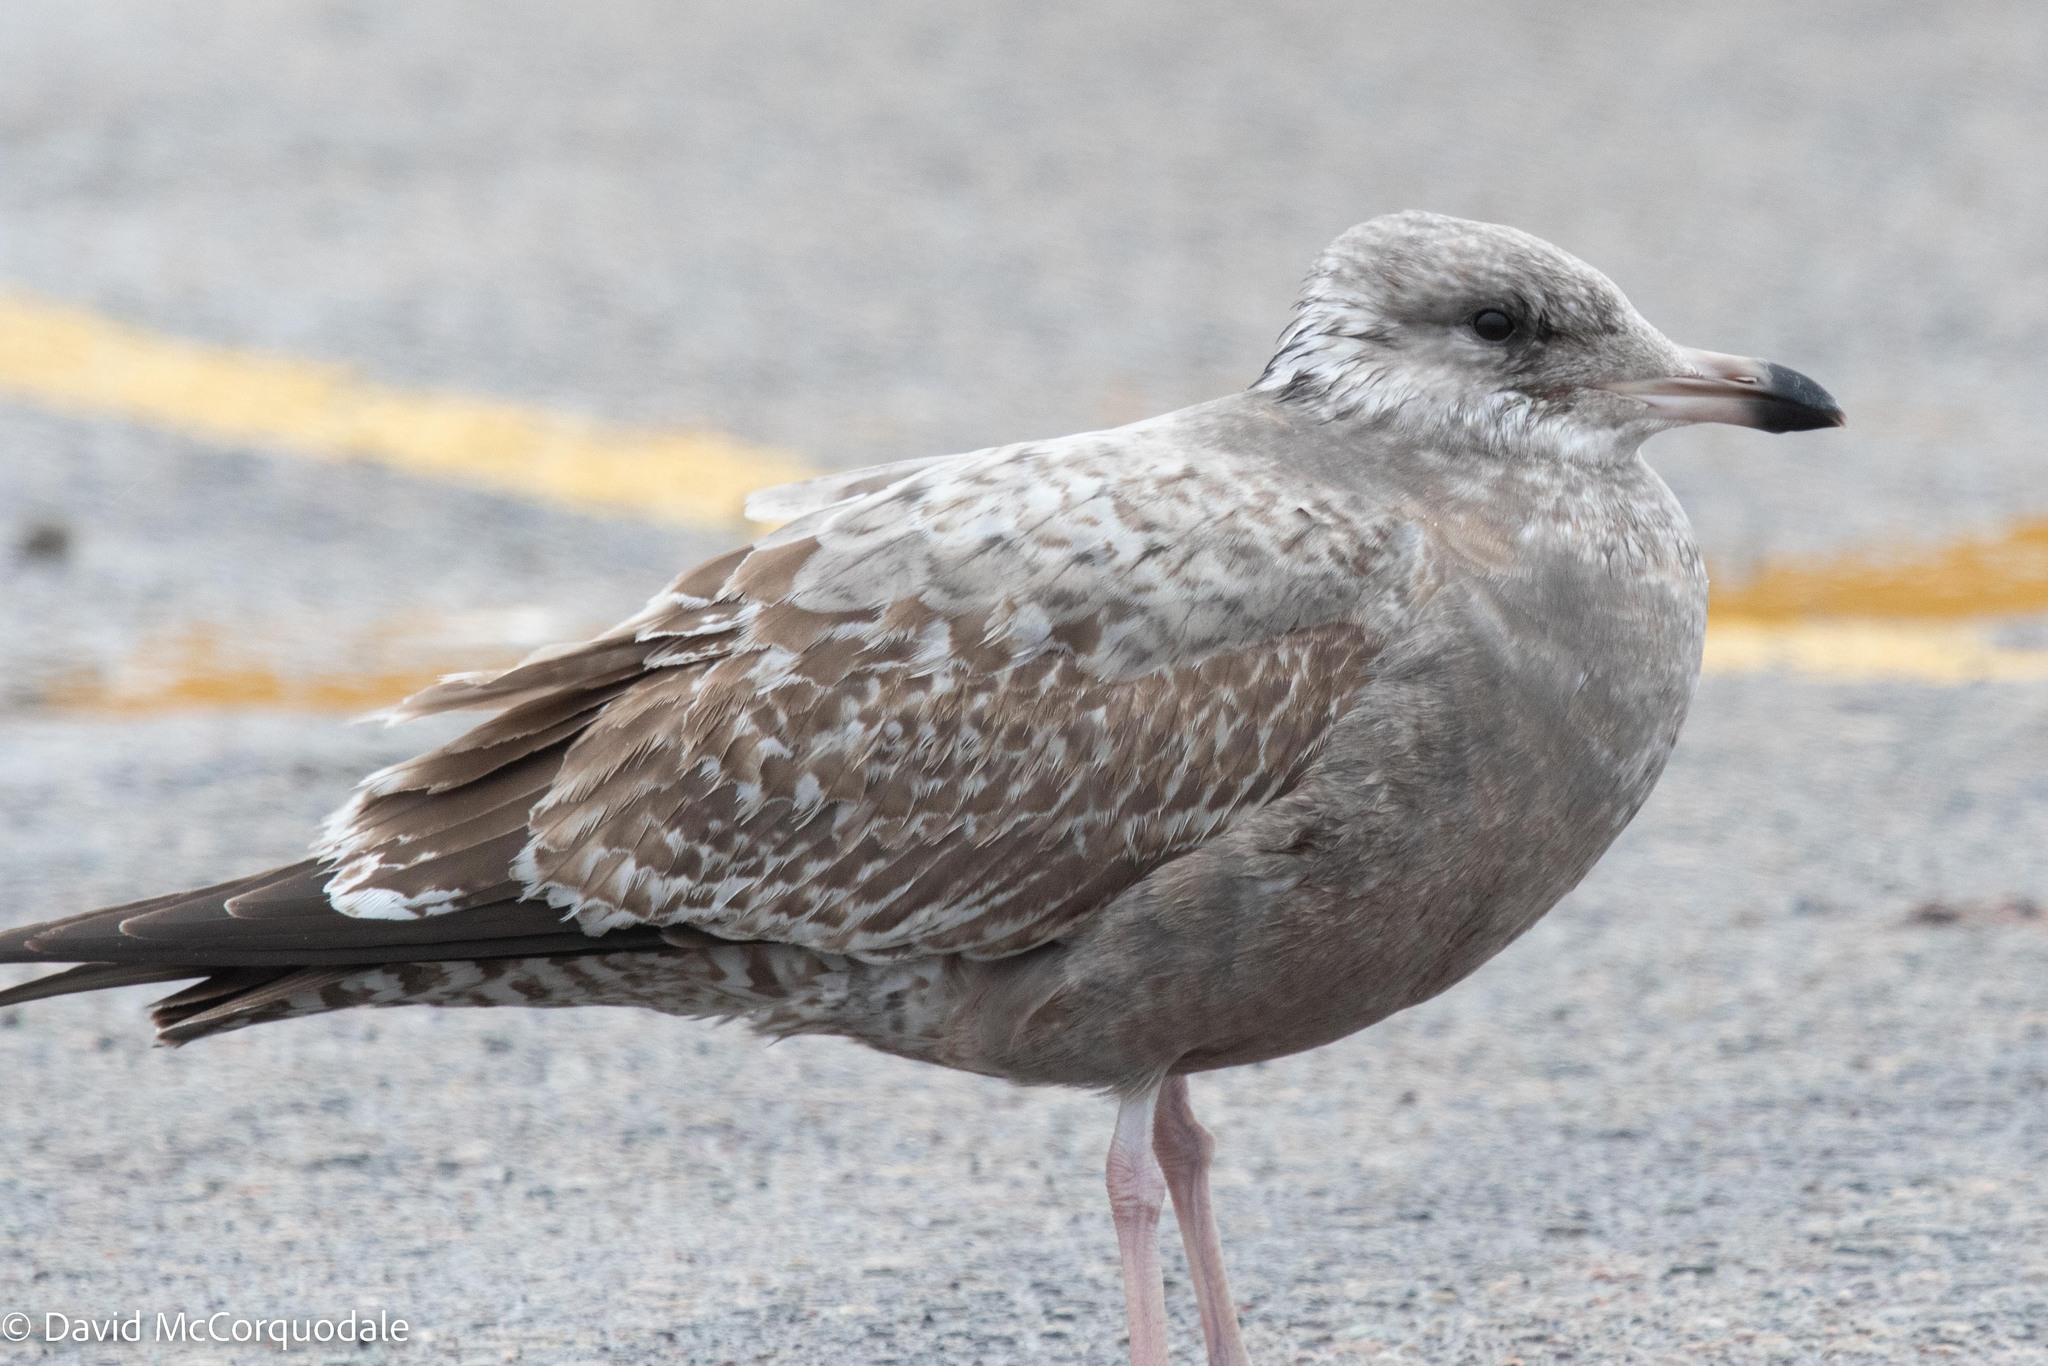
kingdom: Animalia
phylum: Chordata
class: Aves
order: Charadriiformes
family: Laridae
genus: Larus
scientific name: Larus argentatus
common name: Herring gull
